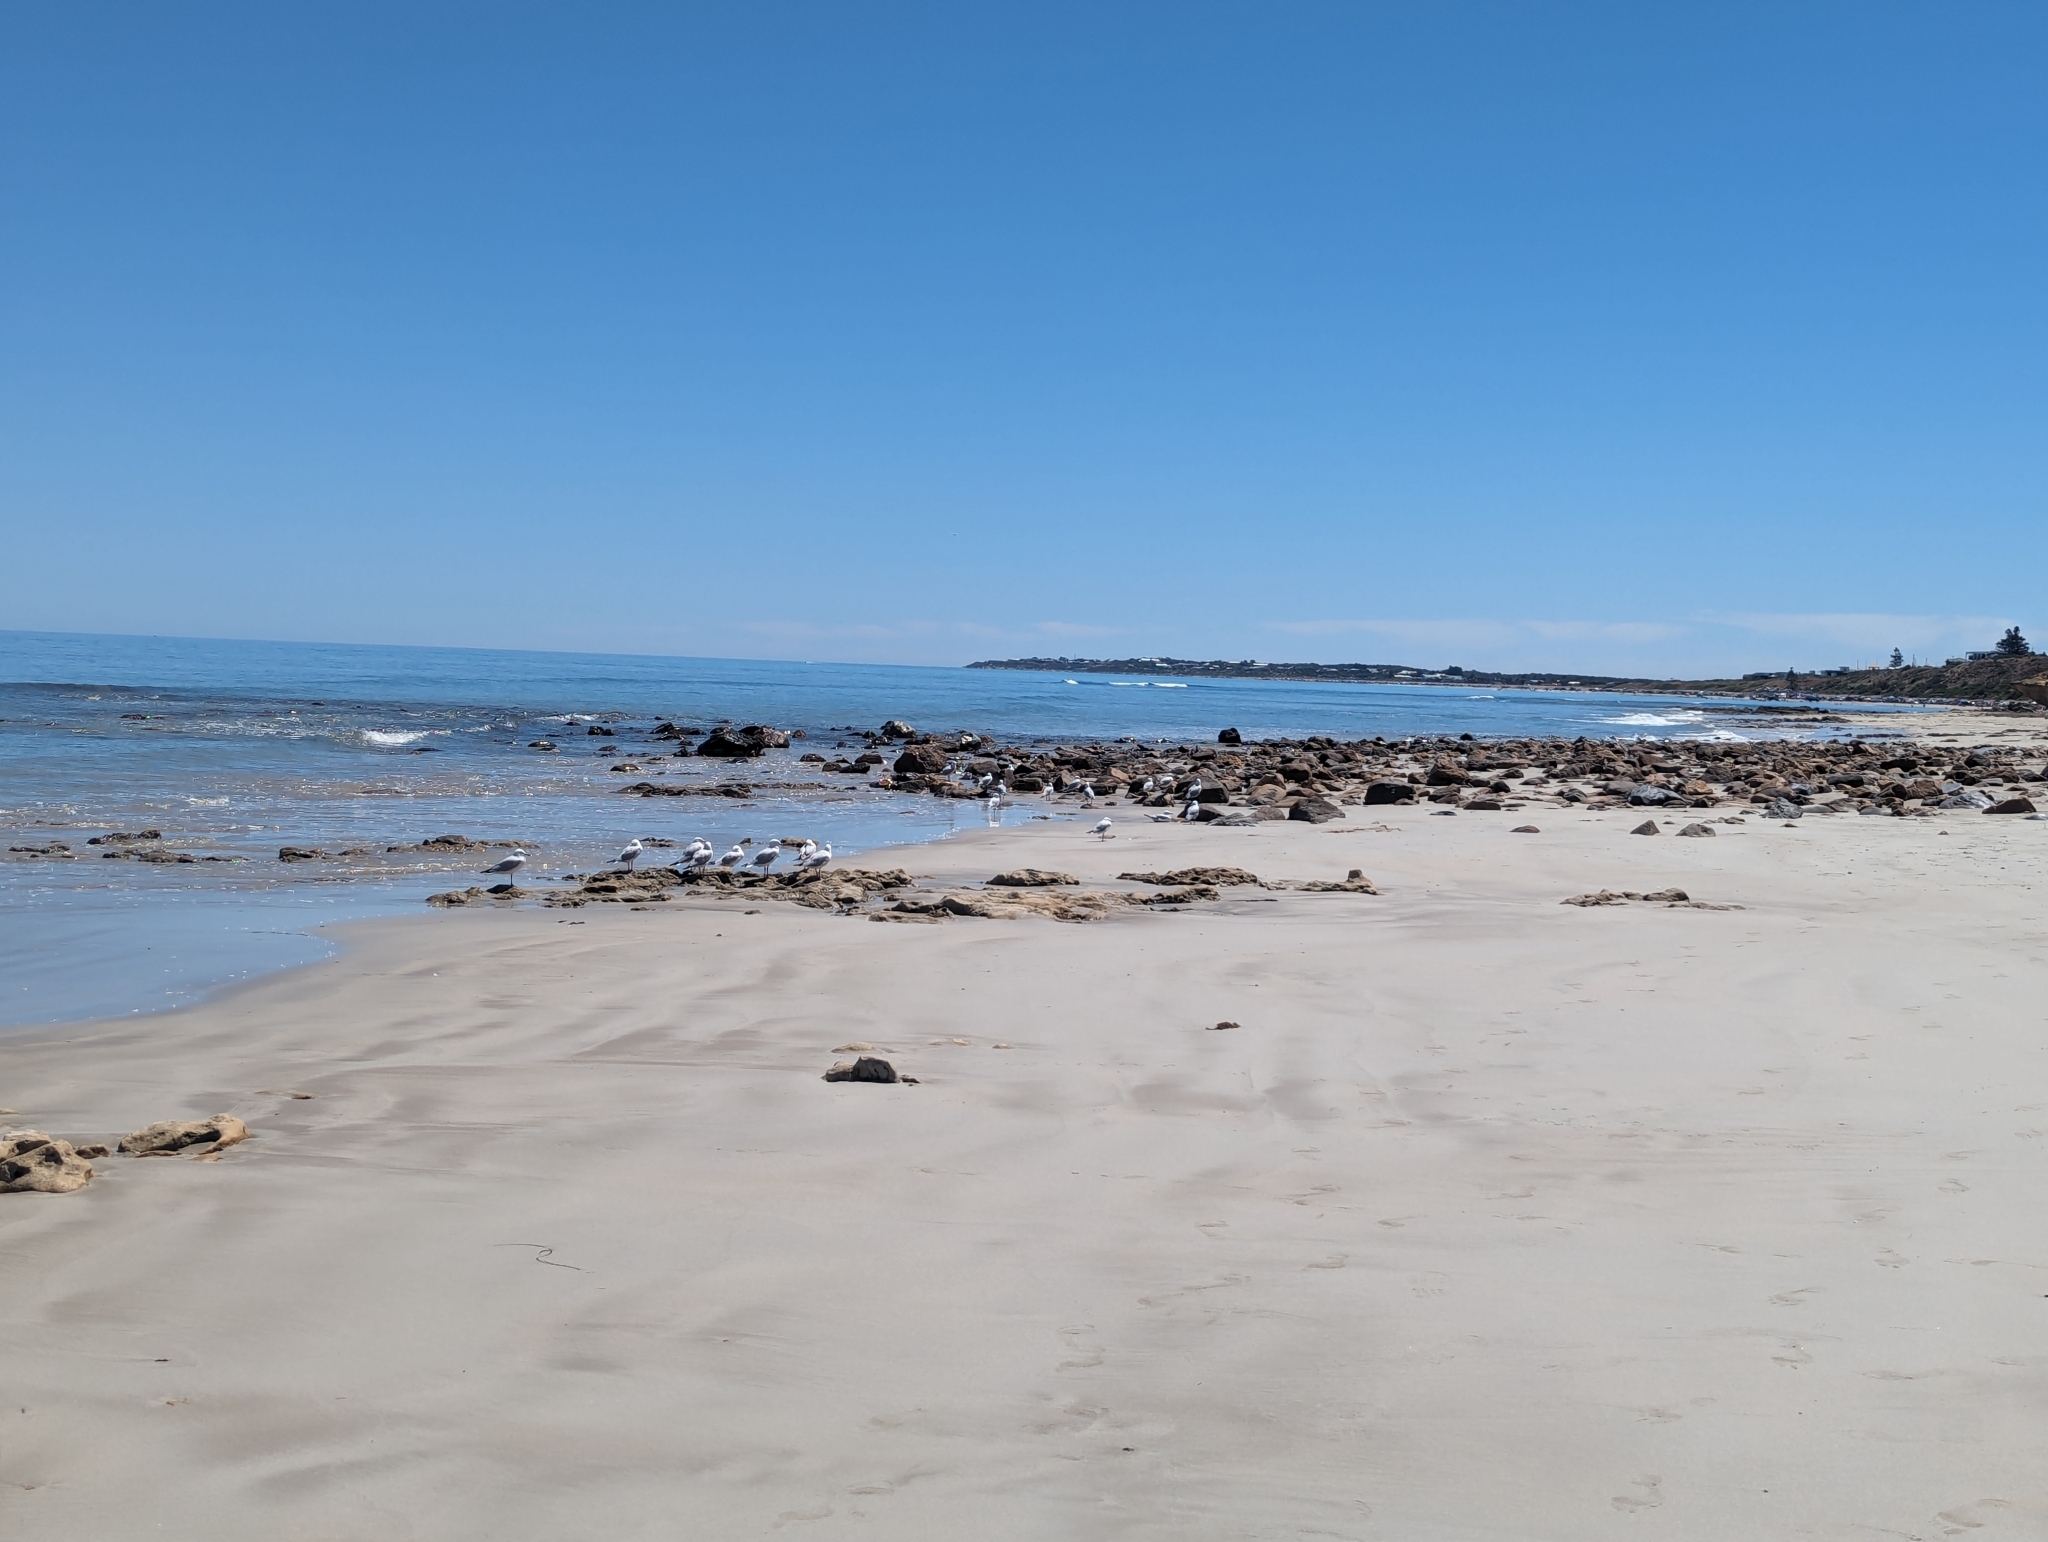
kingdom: Animalia
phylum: Chordata
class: Aves
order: Charadriiformes
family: Laridae
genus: Chroicocephalus
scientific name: Chroicocephalus novaehollandiae
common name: Silver gull
